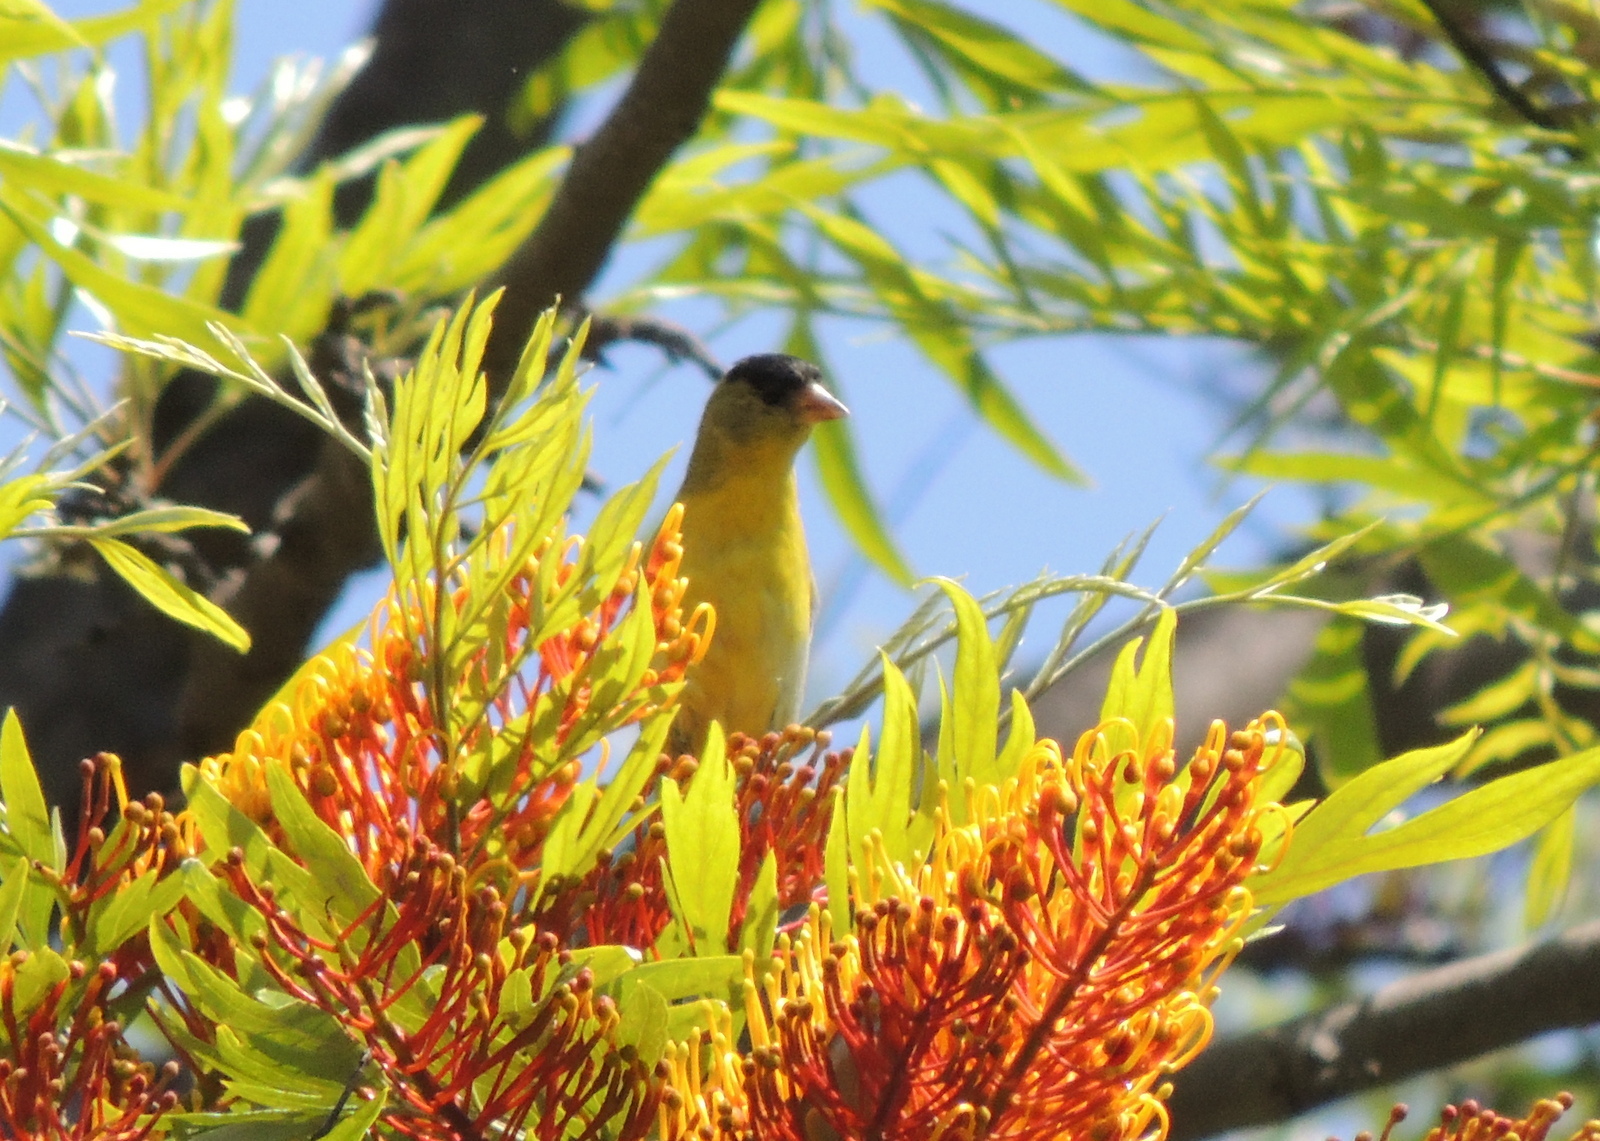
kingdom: Animalia
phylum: Chordata
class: Aves
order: Passeriformes
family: Fringillidae
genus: Spinus
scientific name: Spinus psaltria
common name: Lesser goldfinch
